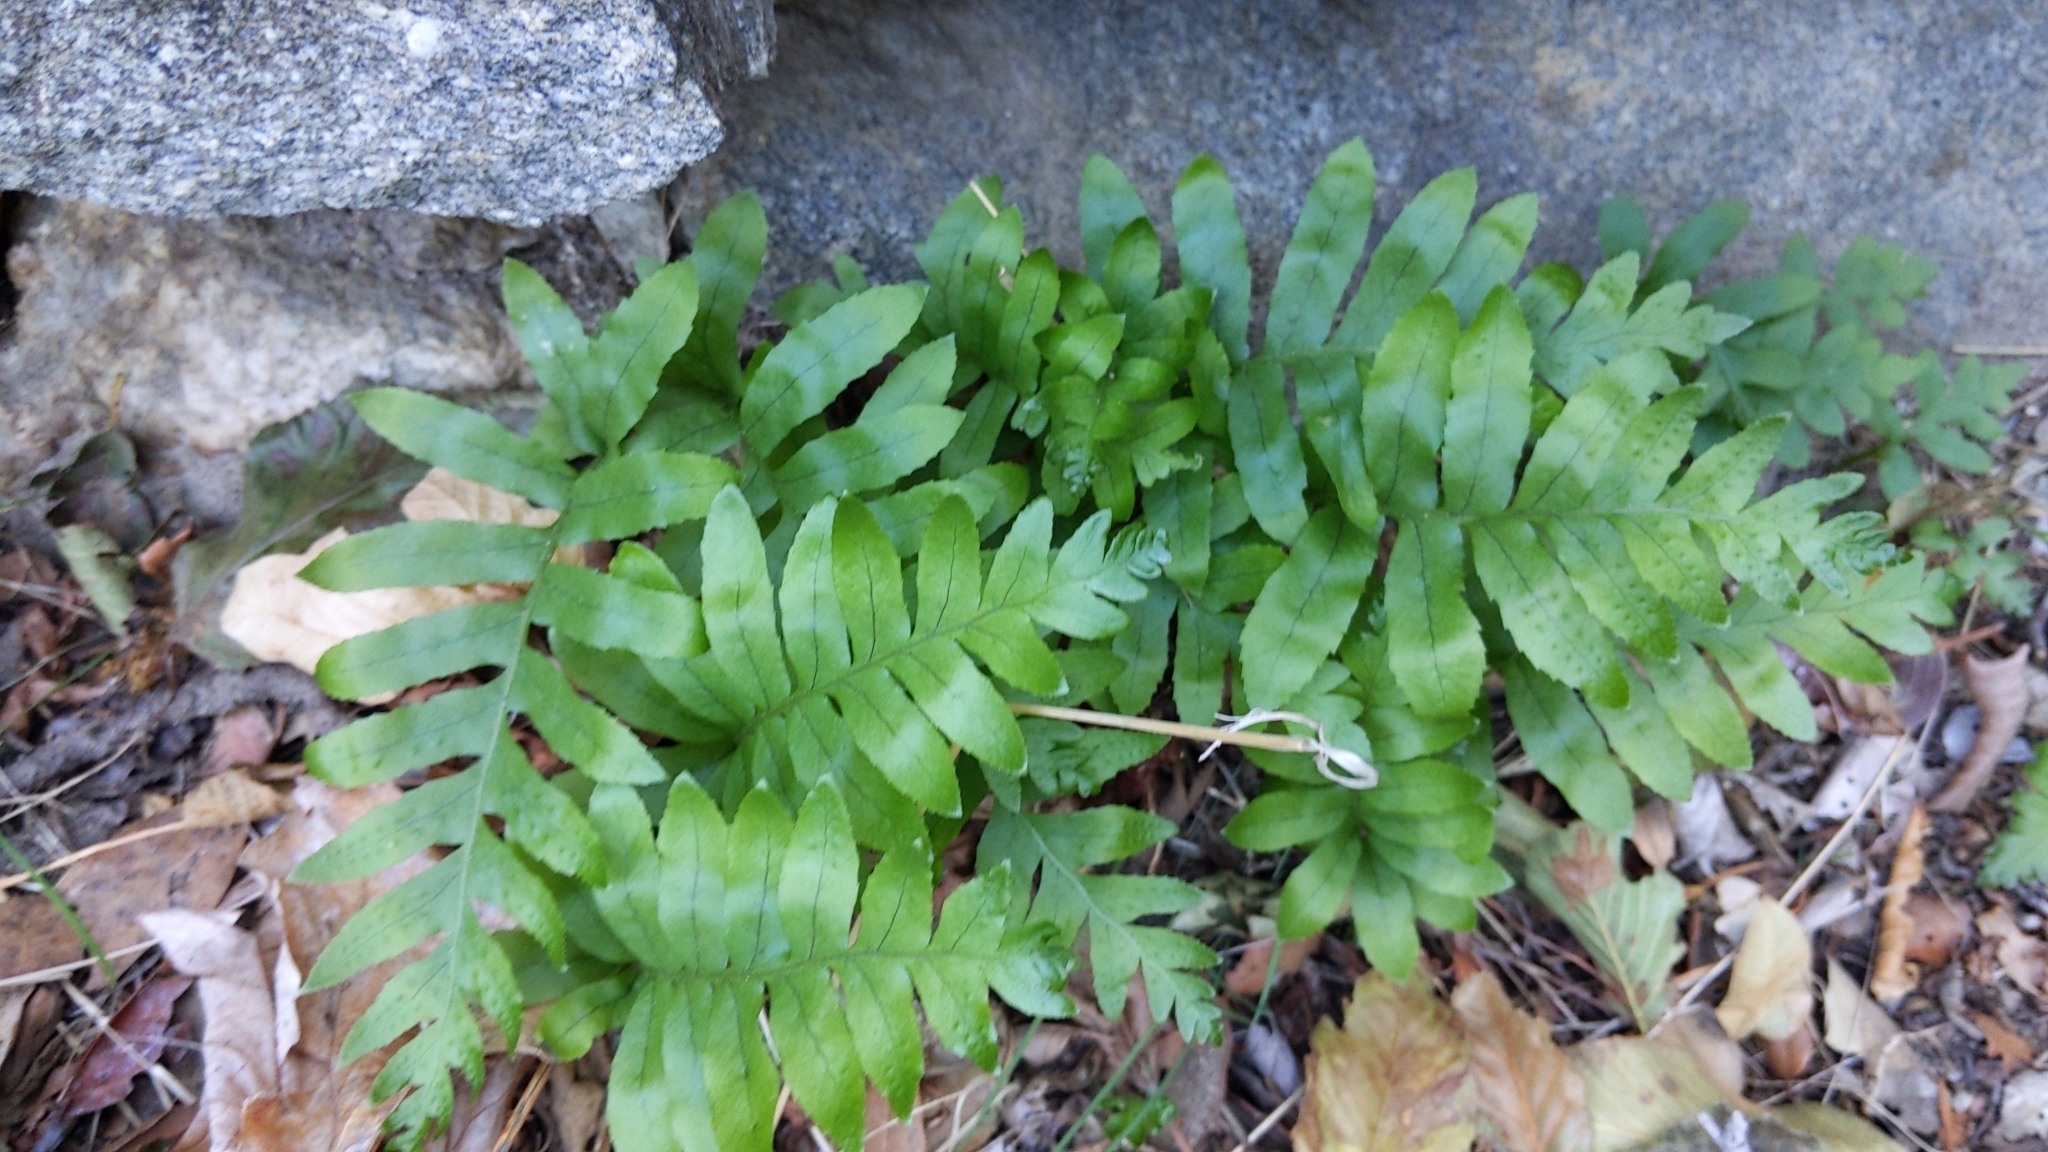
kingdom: Plantae
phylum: Tracheophyta
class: Polypodiopsida
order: Polypodiales
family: Polypodiaceae
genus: Polypodium
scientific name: Polypodium californicum
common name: California polypody
